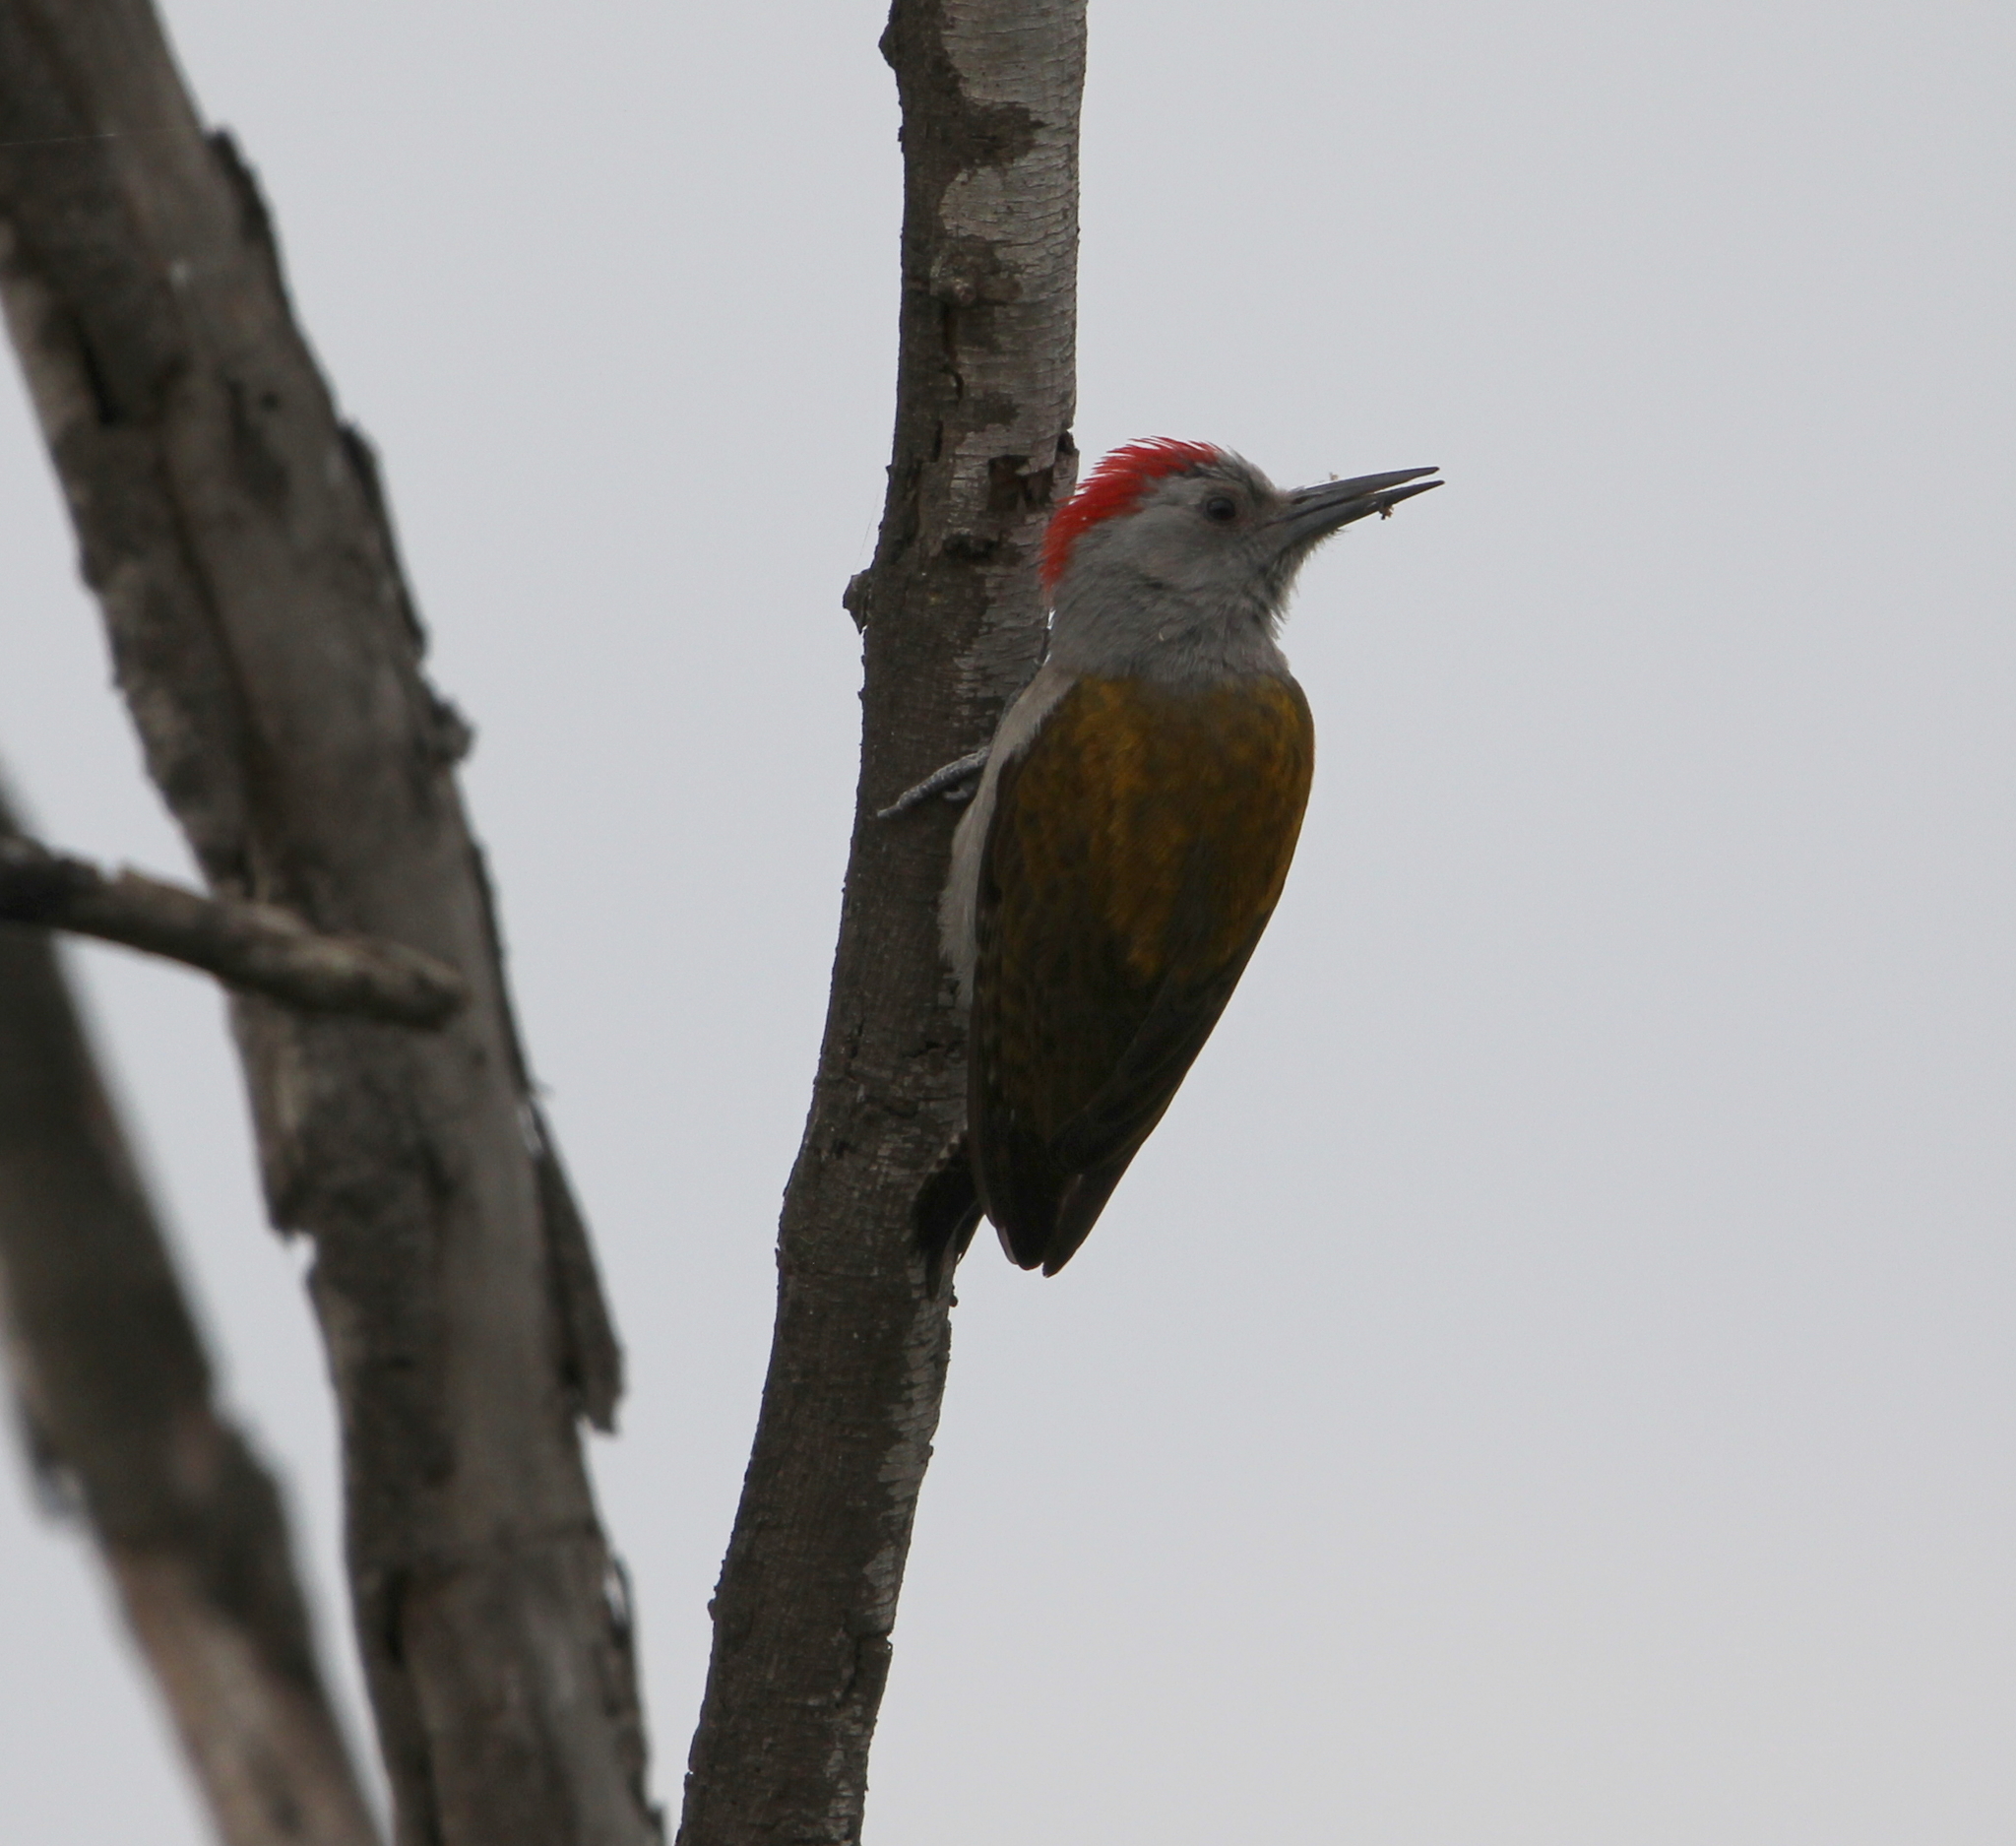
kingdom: Animalia
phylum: Chordata
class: Aves
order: Piciformes
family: Picidae
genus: Dendropicos
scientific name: Dendropicos spodocephalus
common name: Eastern grey woodpecker
